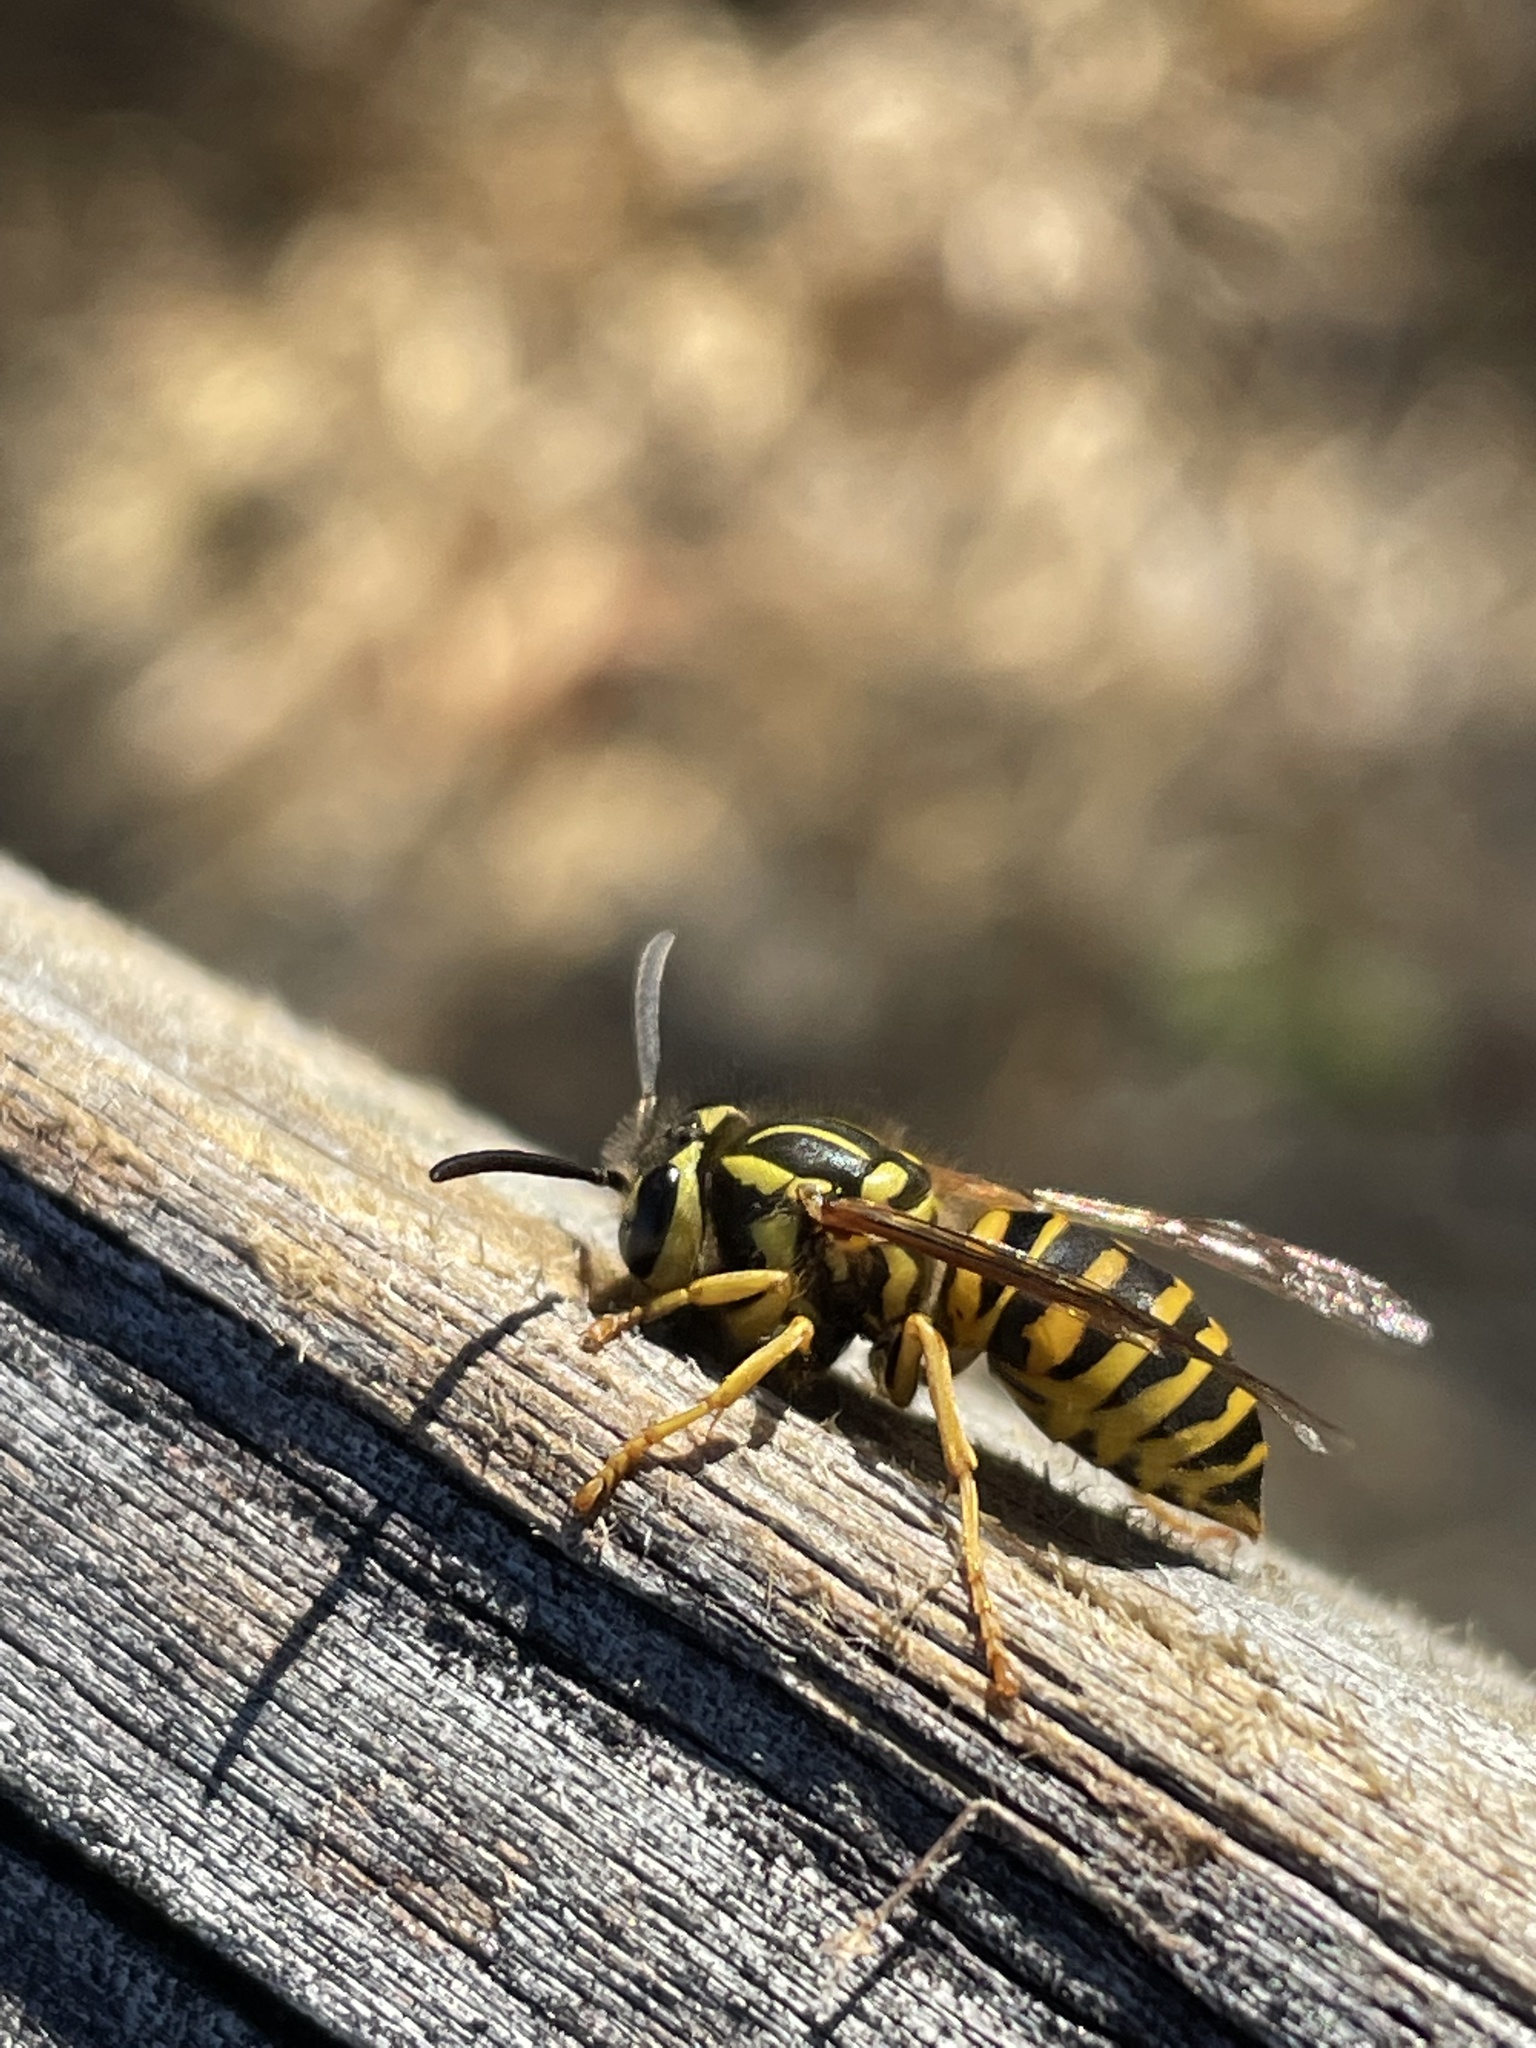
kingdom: Animalia
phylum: Arthropoda
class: Insecta
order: Hymenoptera
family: Vespidae
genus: Vespula
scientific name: Vespula squamosa
